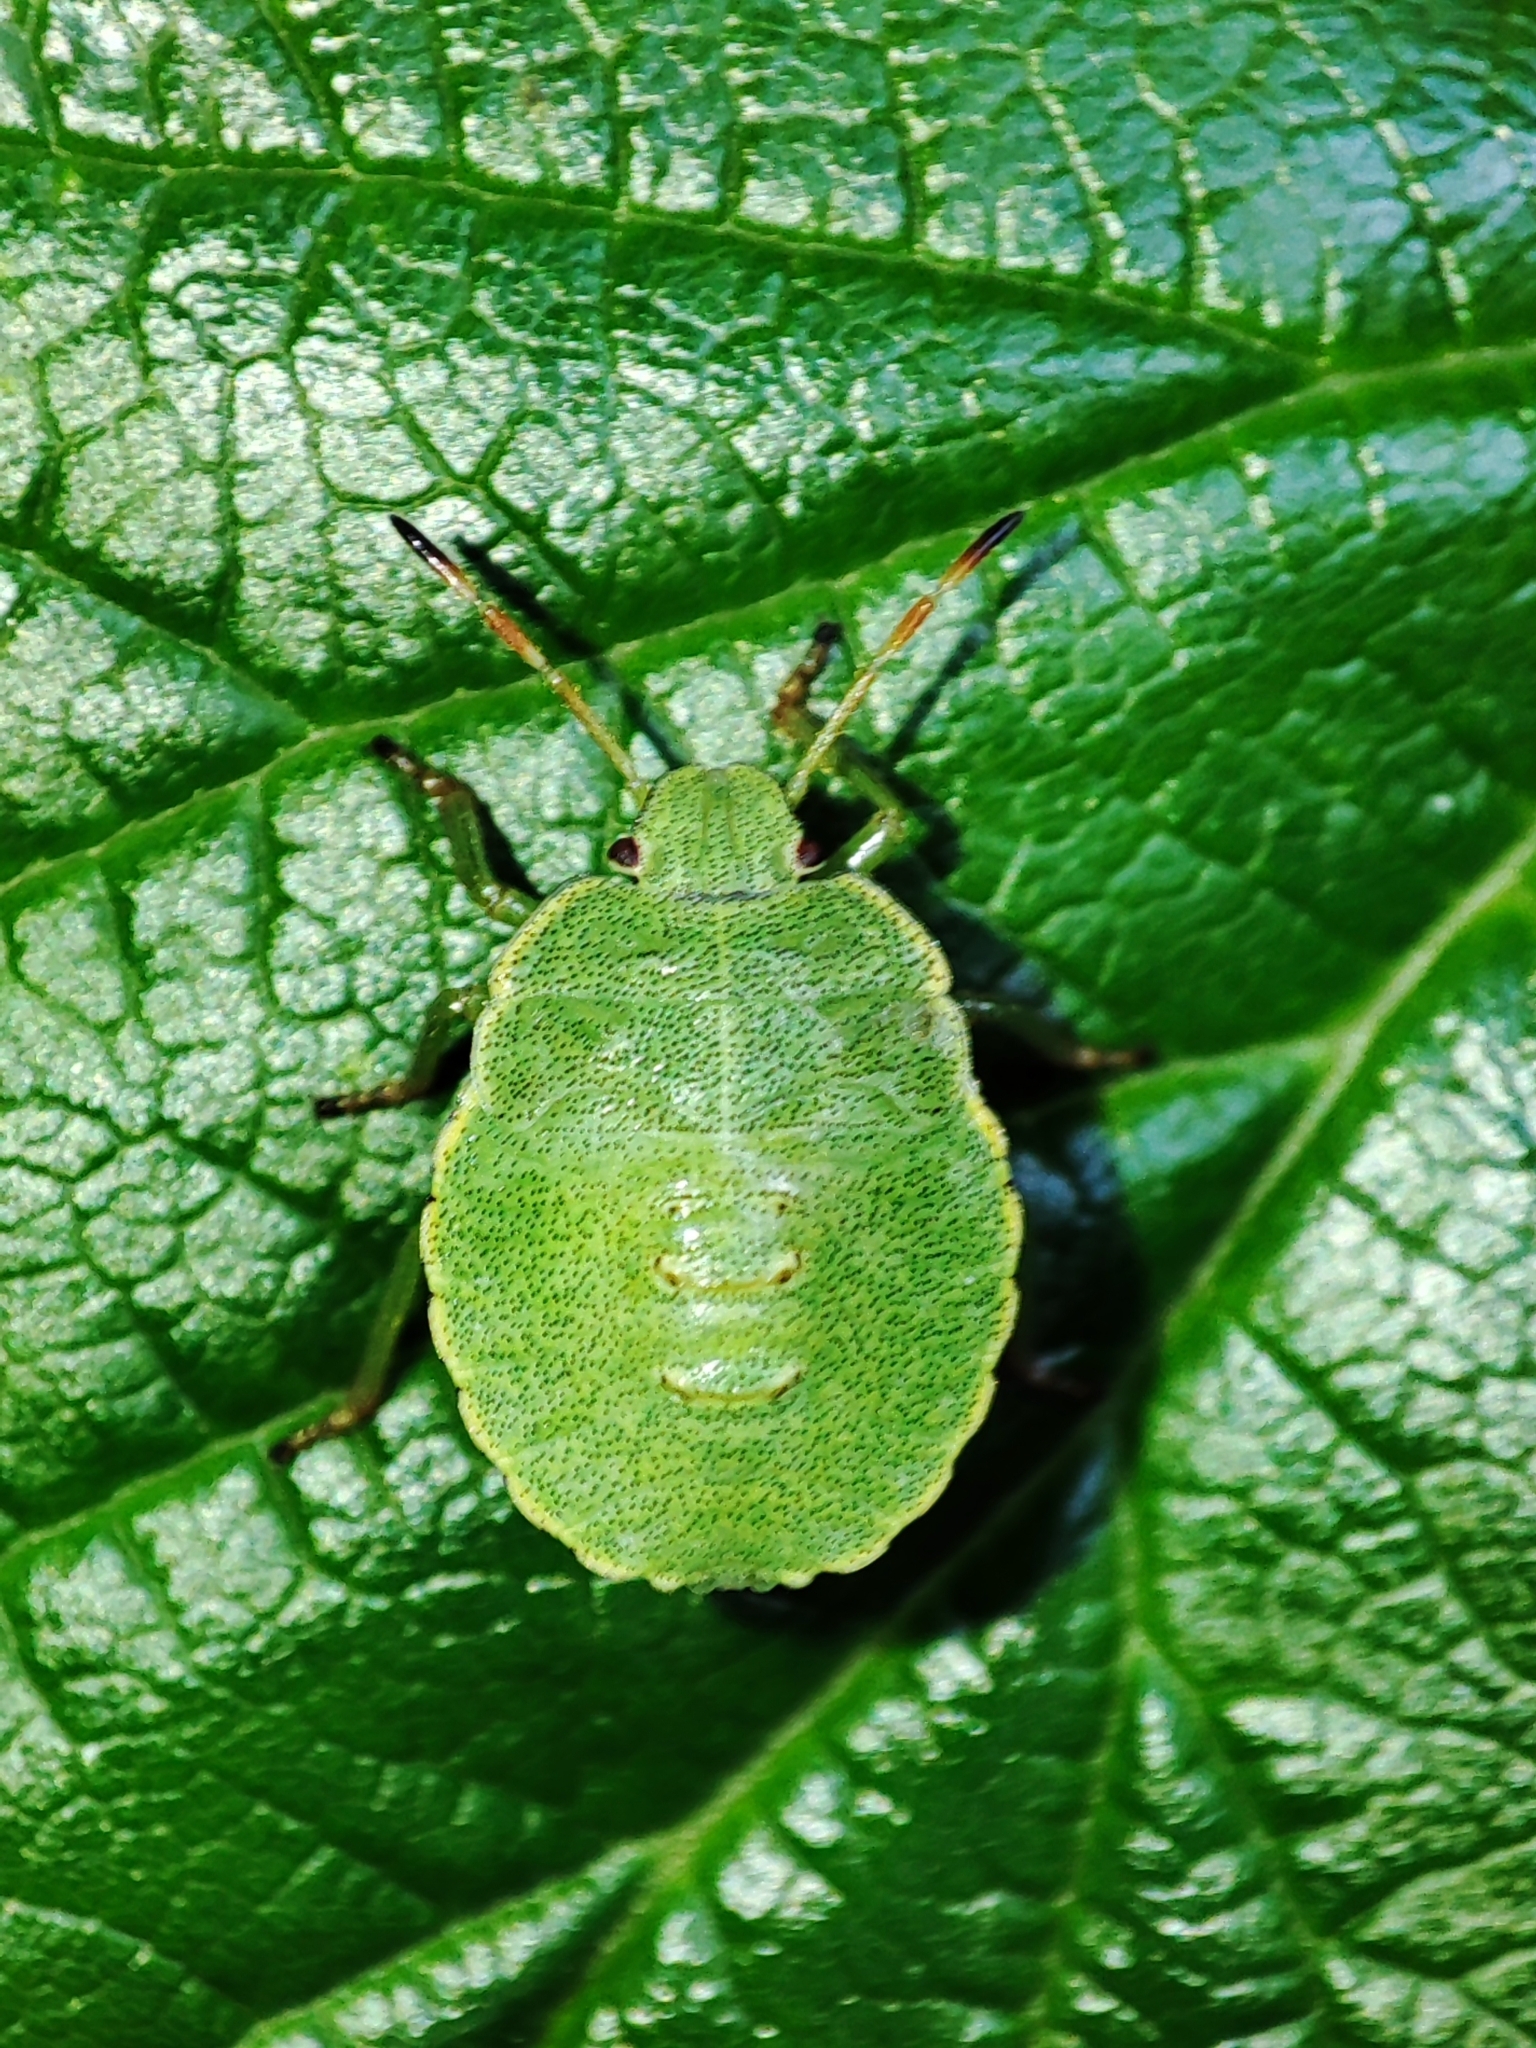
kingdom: Animalia
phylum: Arthropoda
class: Insecta
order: Hemiptera
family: Pentatomidae
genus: Palomena
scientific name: Palomena prasina
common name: Green shieldbug
